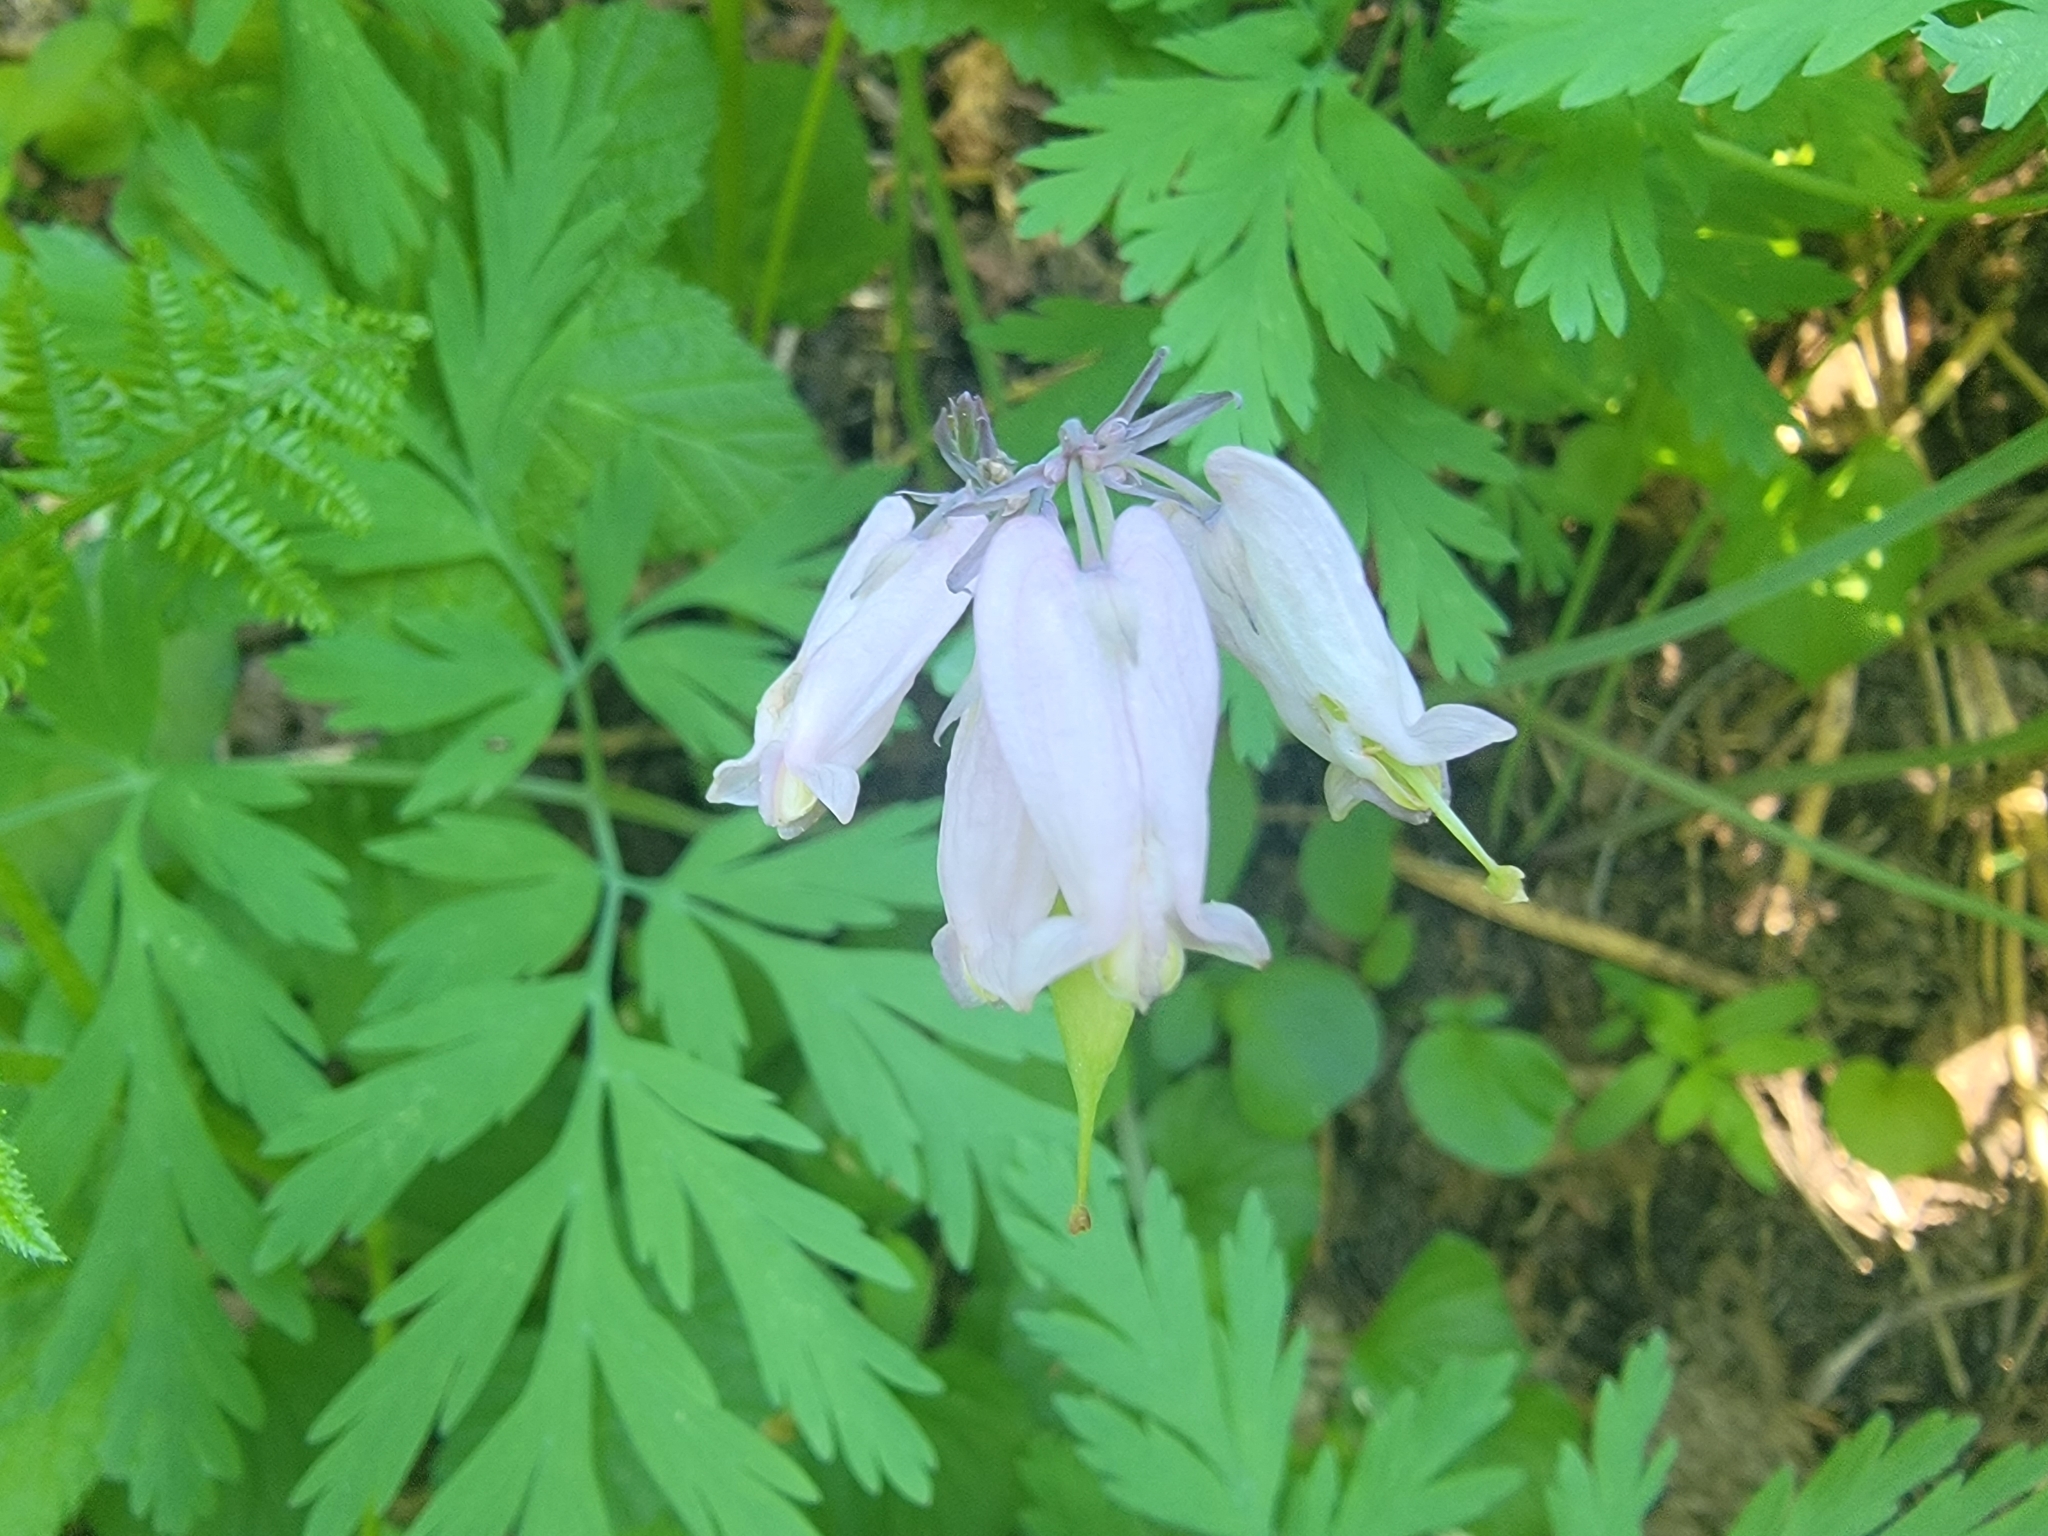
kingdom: Plantae
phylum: Tracheophyta
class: Magnoliopsida
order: Ranunculales
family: Papaveraceae
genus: Dicentra
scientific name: Dicentra formosa
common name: Bleeding-heart
